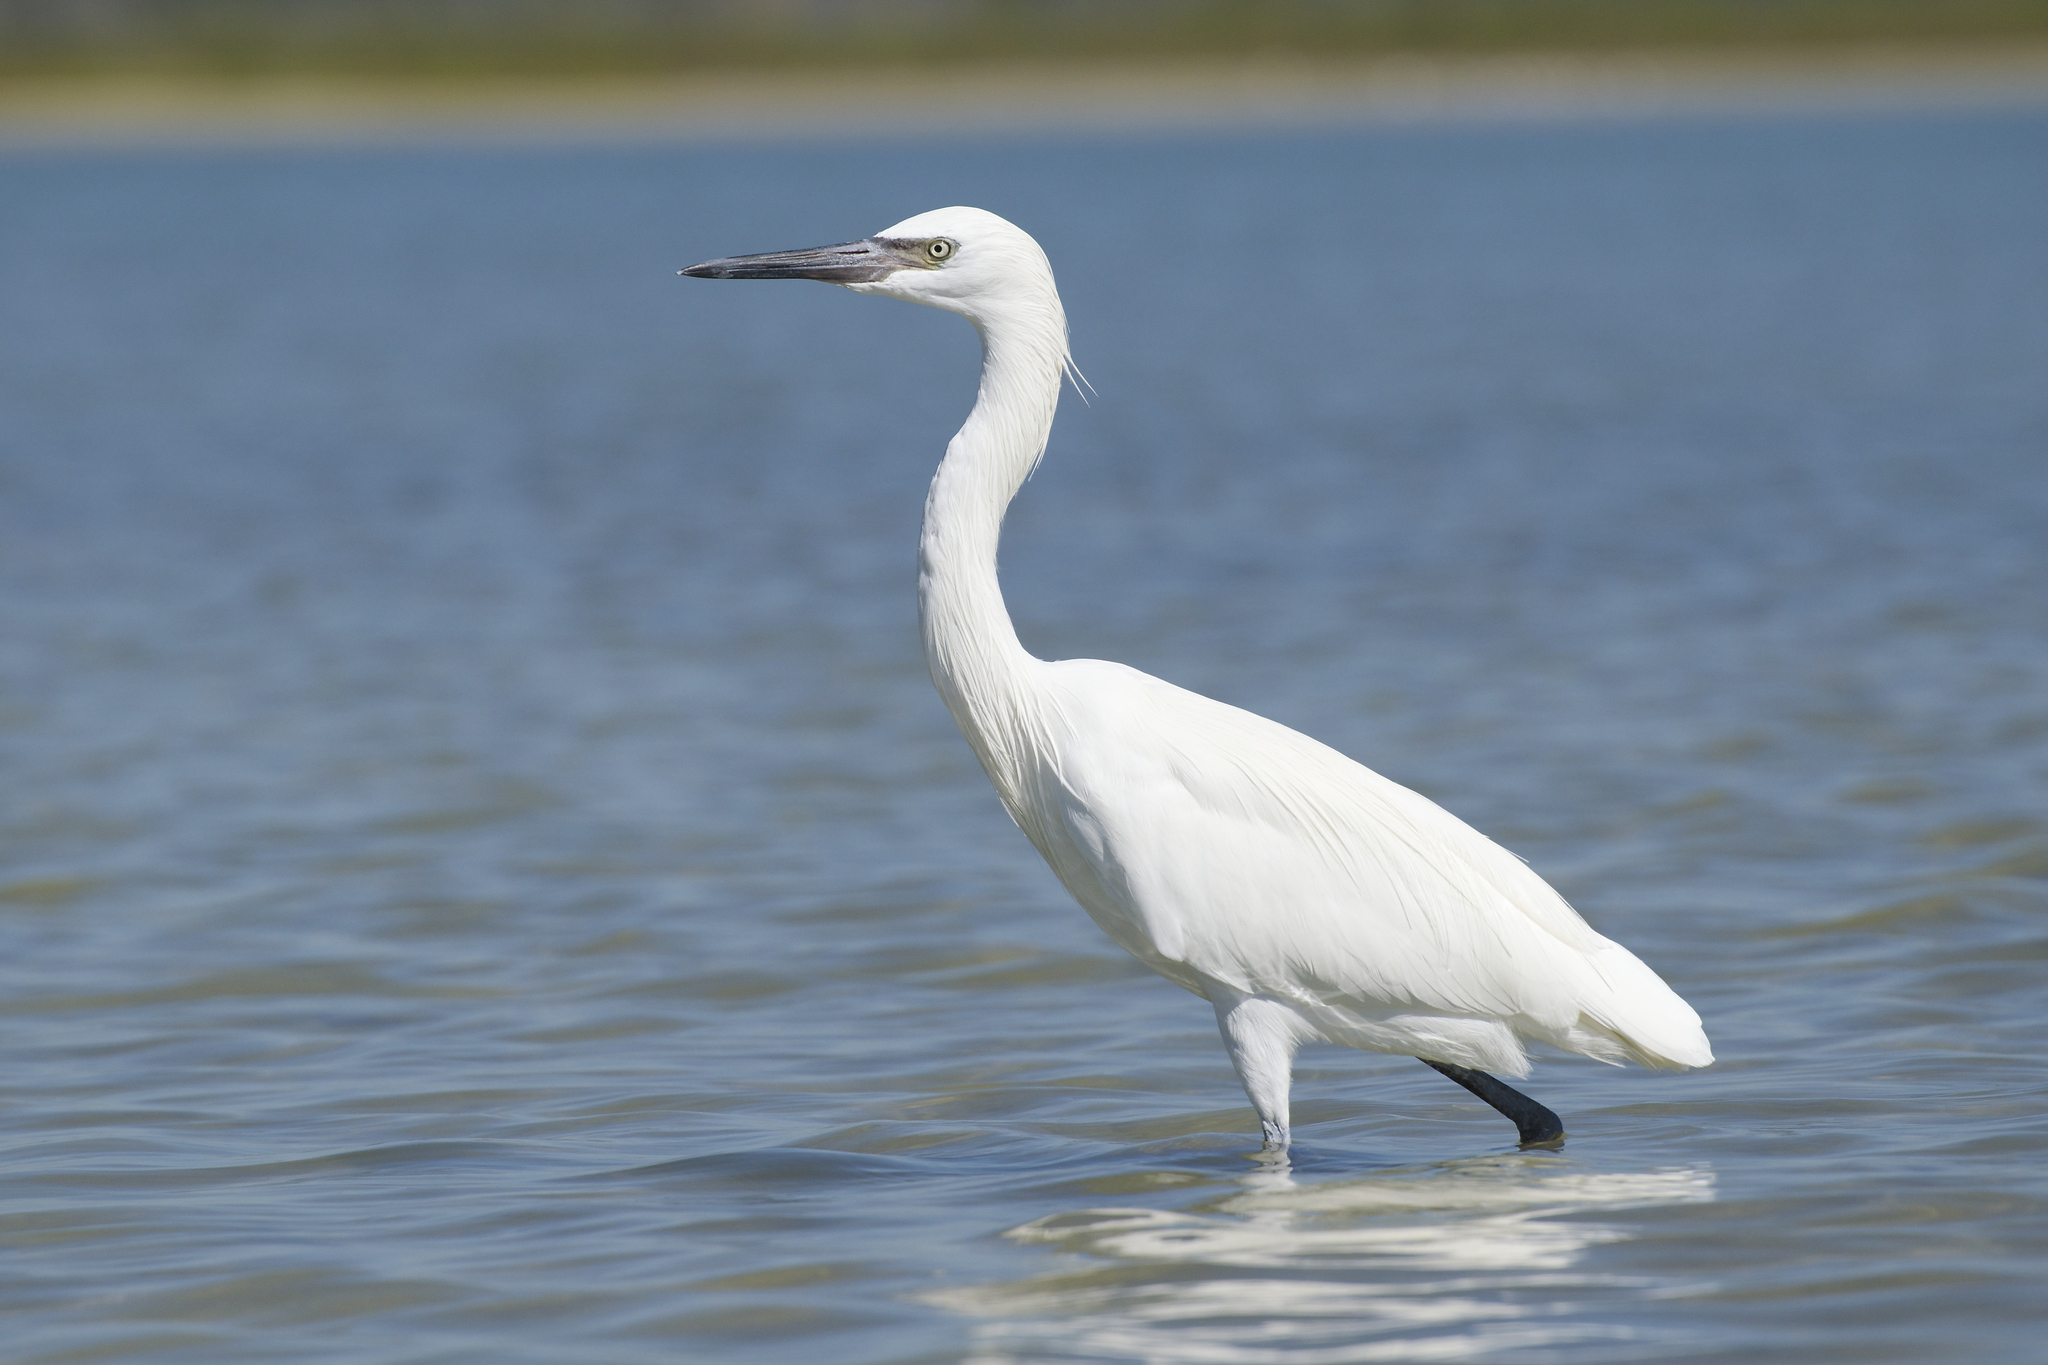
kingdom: Animalia
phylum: Chordata
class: Aves
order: Pelecaniformes
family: Ardeidae
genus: Egretta
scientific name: Egretta rufescens
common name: Reddish egret
